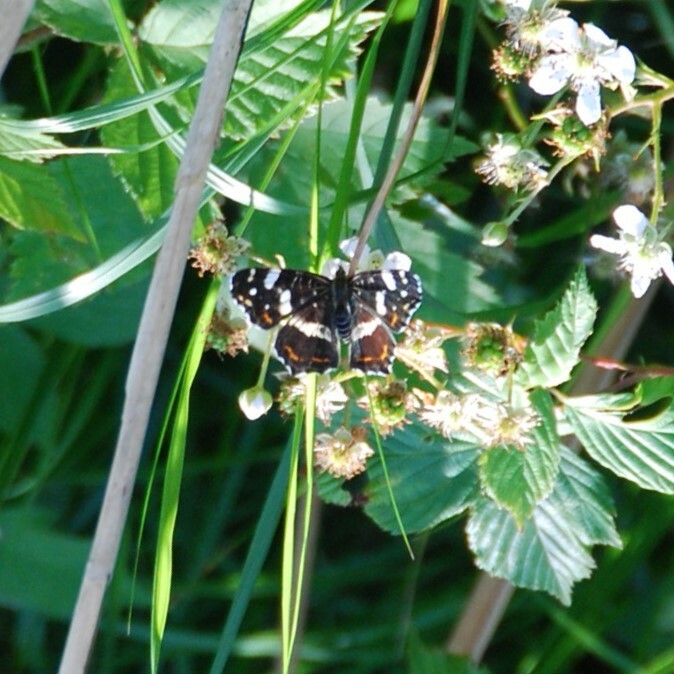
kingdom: Animalia
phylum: Arthropoda
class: Insecta
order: Lepidoptera
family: Nymphalidae
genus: Araschnia
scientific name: Araschnia levana
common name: Map butterfly
